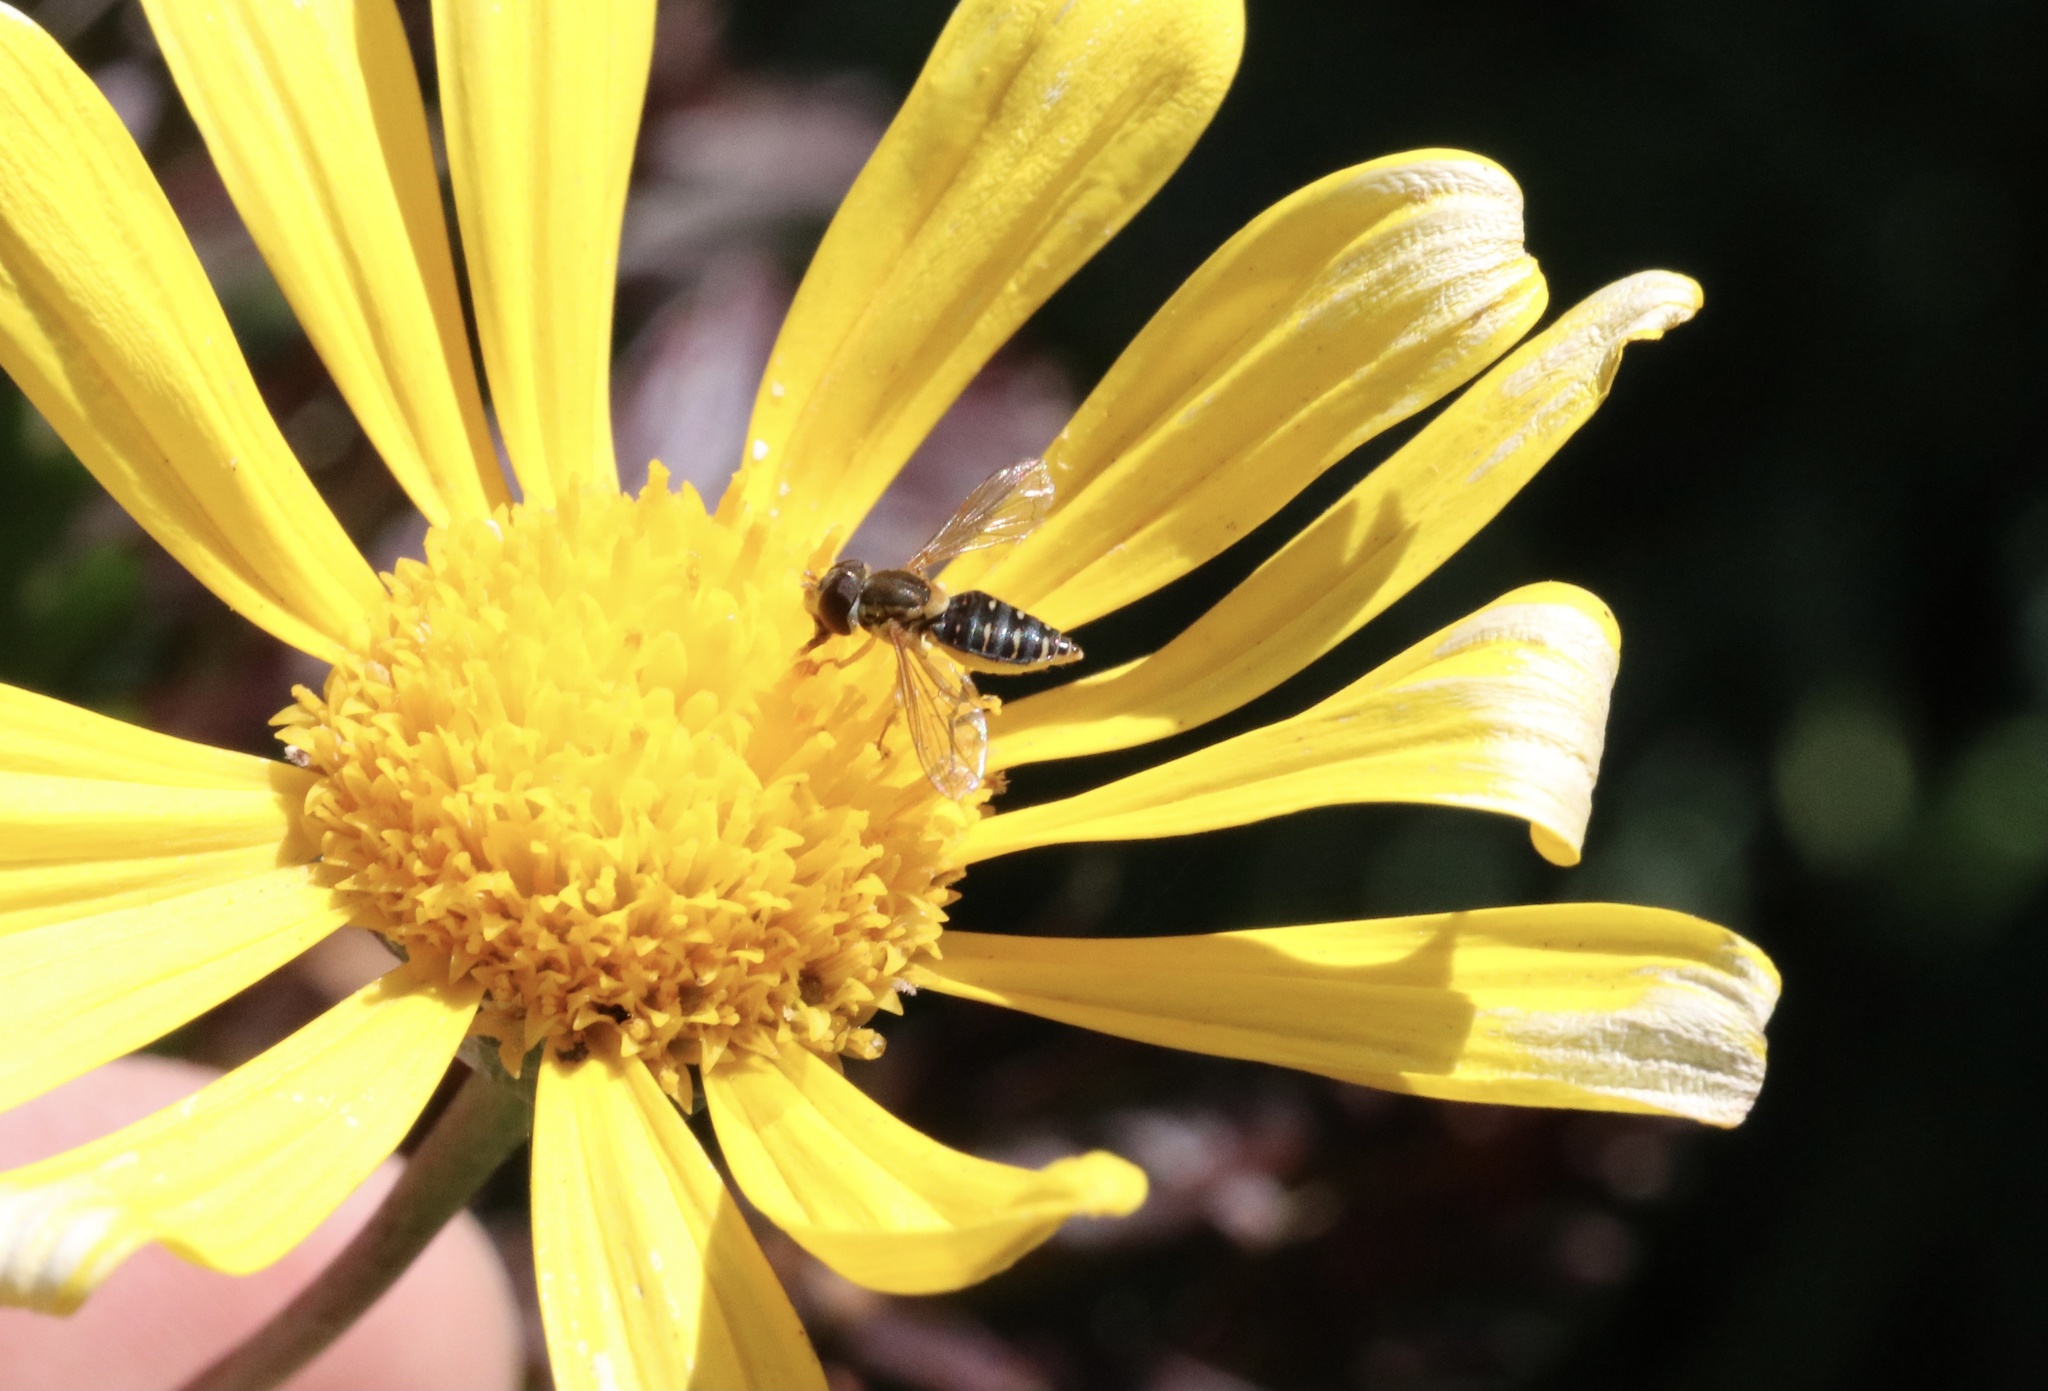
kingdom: Animalia
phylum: Arthropoda
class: Insecta
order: Diptera
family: Syrphidae
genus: Toxomerus
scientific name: Toxomerus vertebratus
